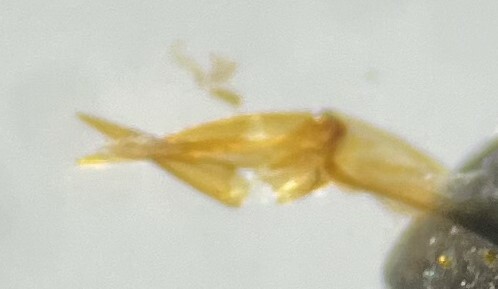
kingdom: Animalia
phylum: Arthropoda
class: Insecta
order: Coleoptera
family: Hydrochidae
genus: Hydrochus
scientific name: Hydrochus vagus
